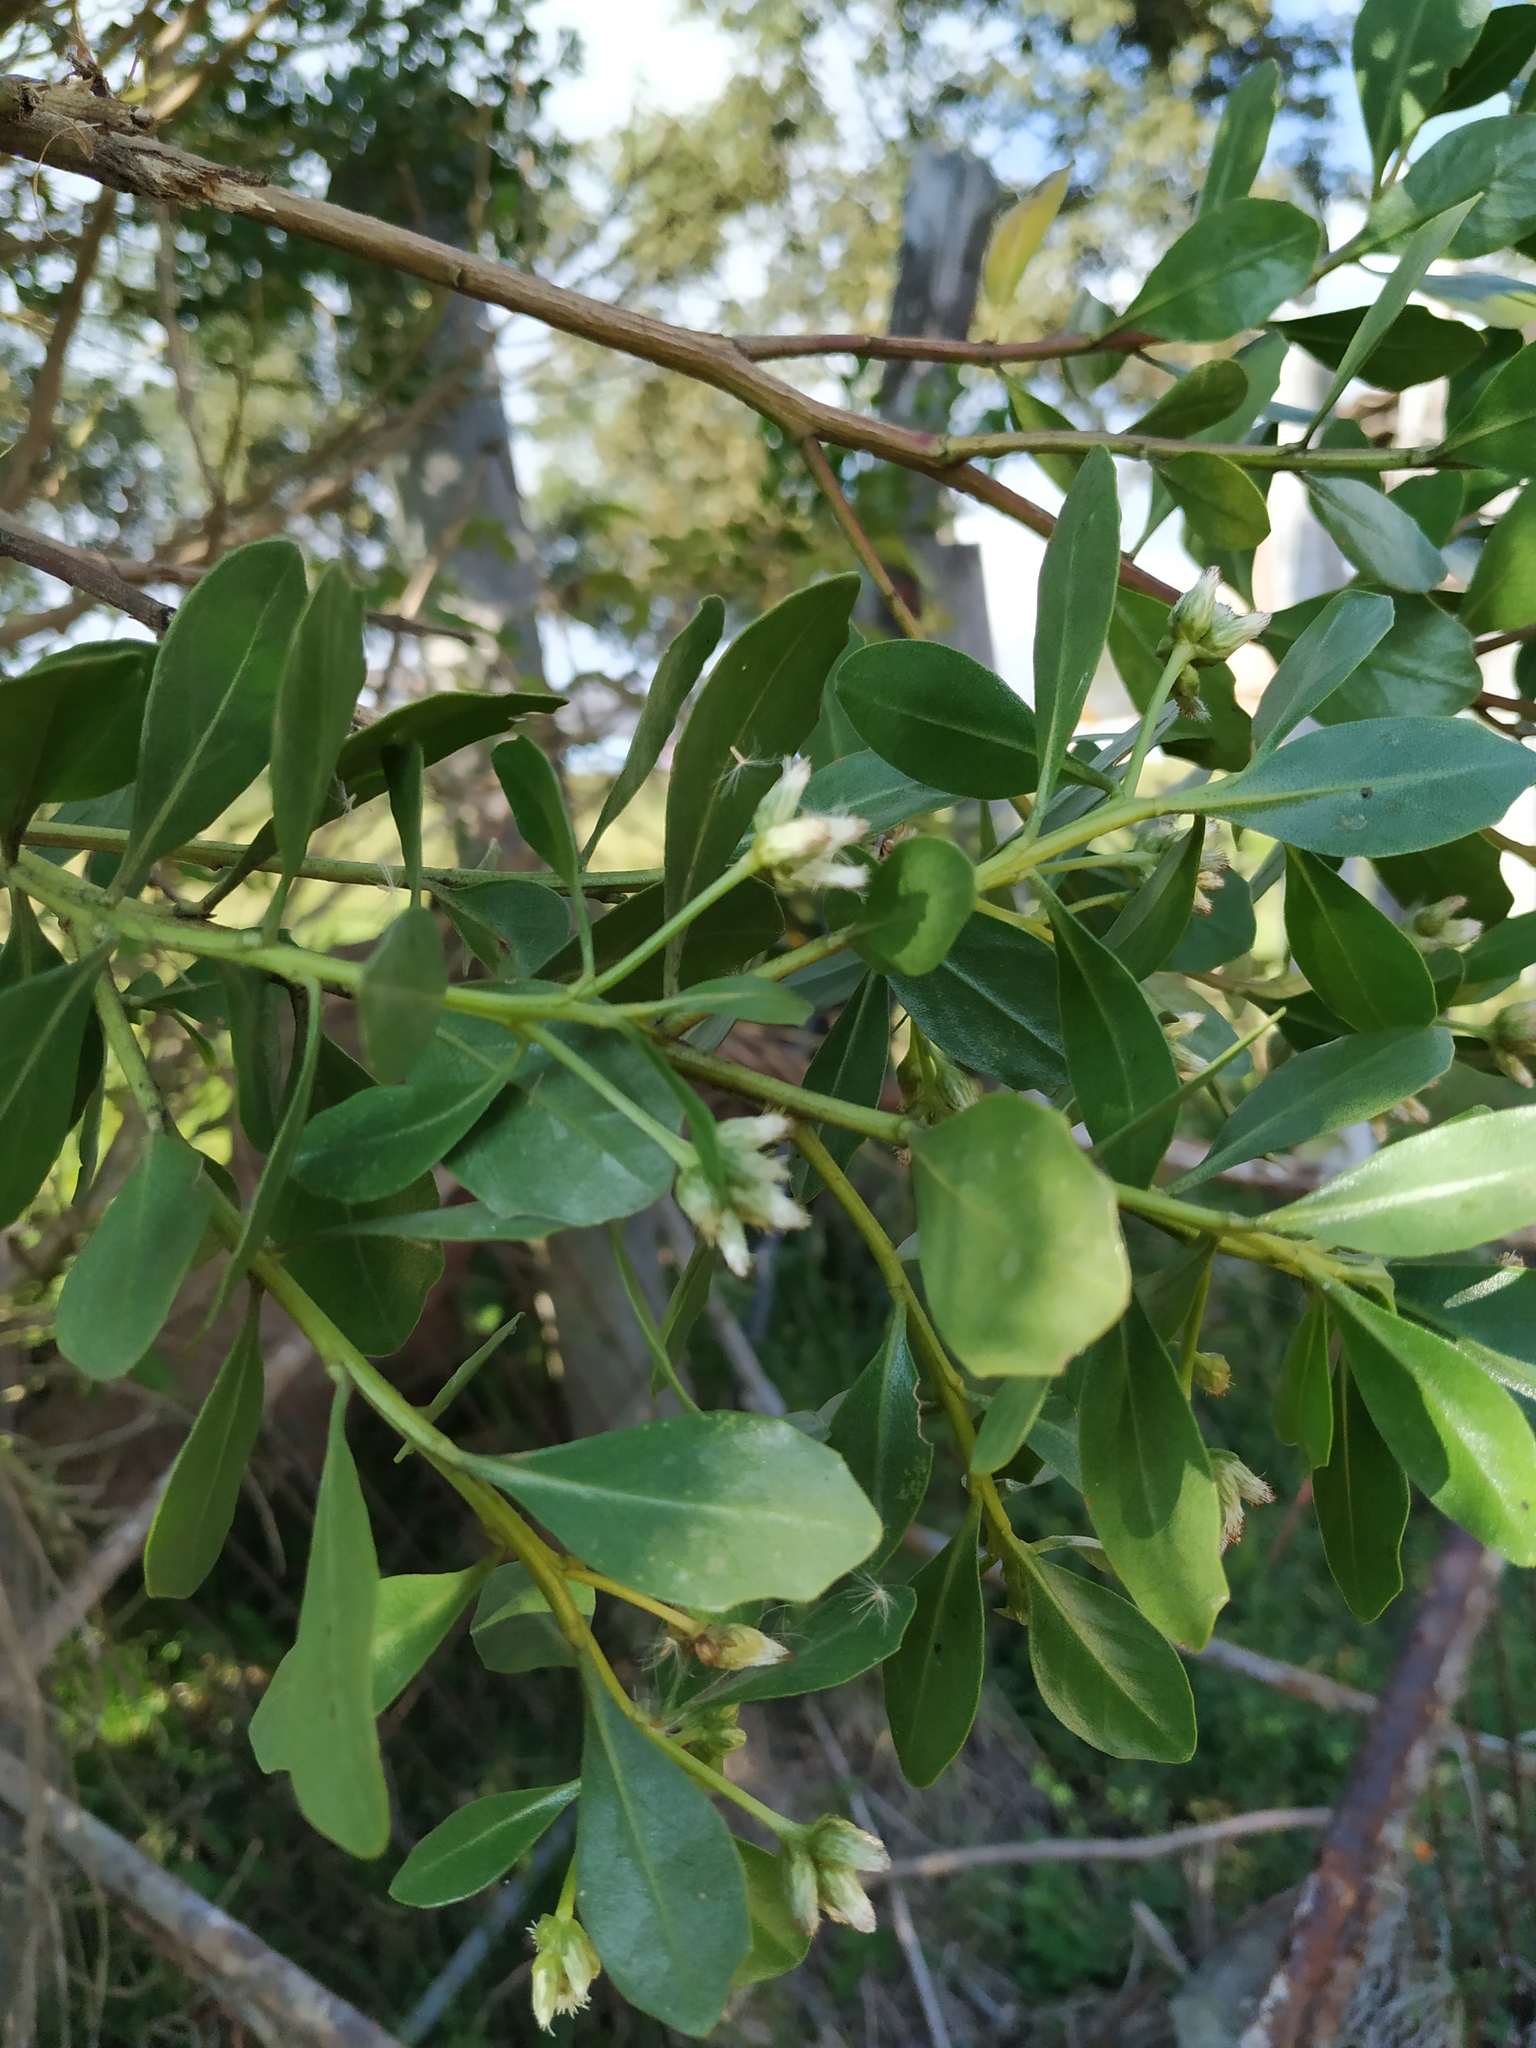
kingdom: Plantae
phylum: Tracheophyta
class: Magnoliopsida
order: Asterales
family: Asteraceae
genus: Baccharis
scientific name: Baccharis macrantha
